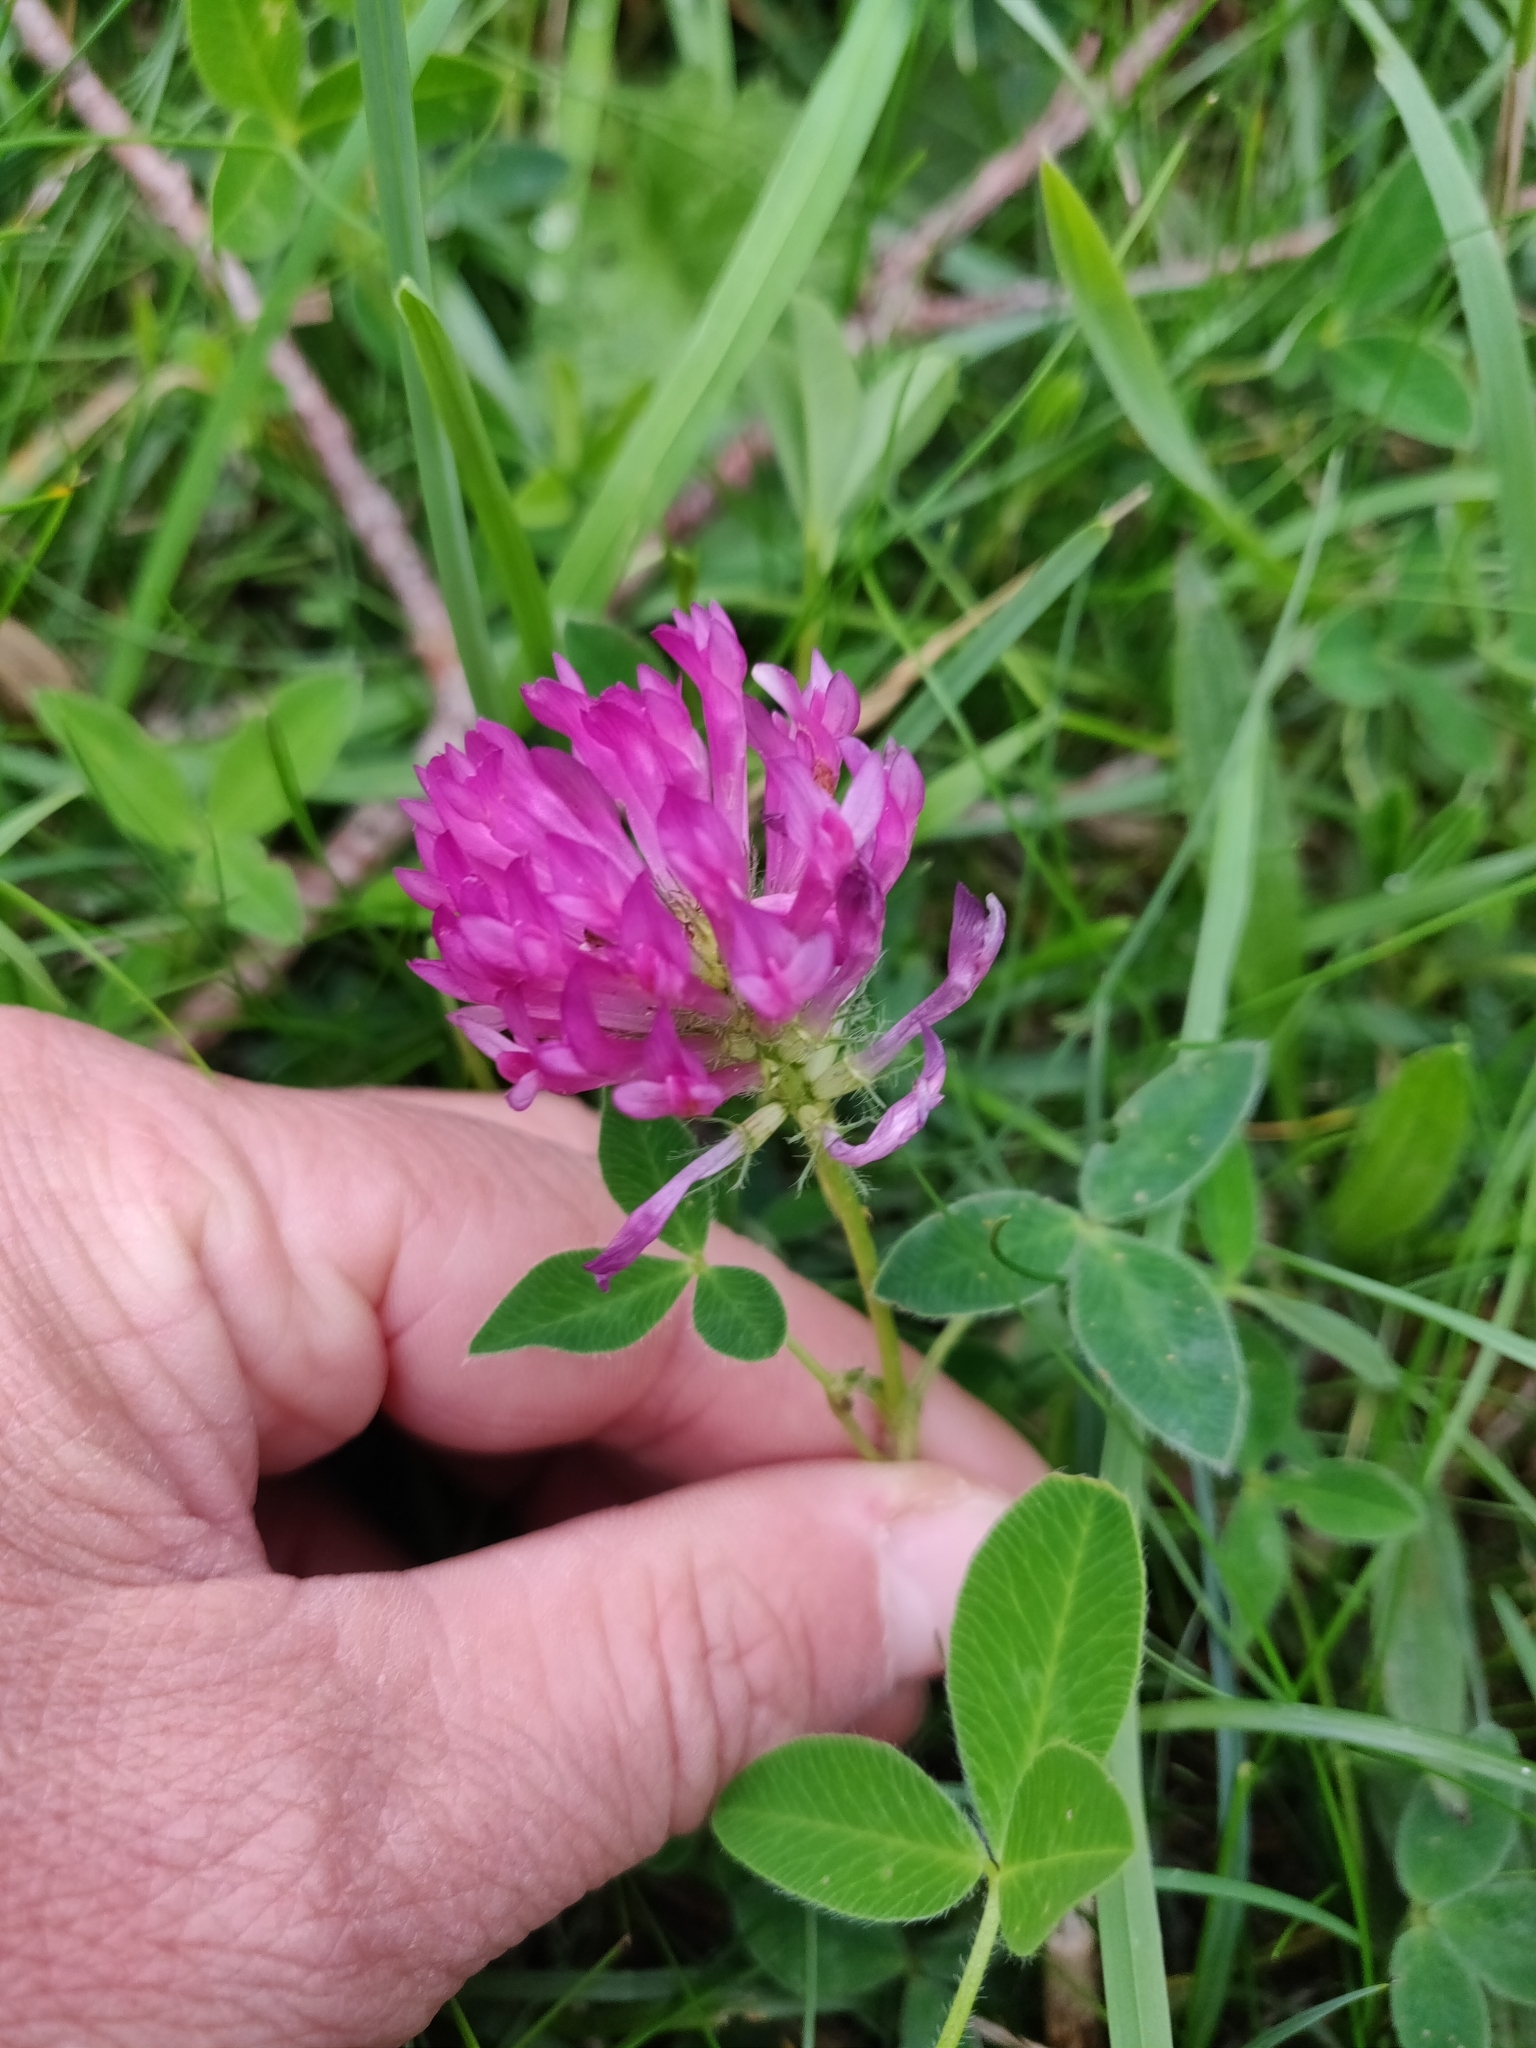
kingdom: Plantae
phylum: Tracheophyta
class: Magnoliopsida
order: Fabales
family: Fabaceae
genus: Trifolium
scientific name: Trifolium medium
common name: Zigzag clover
